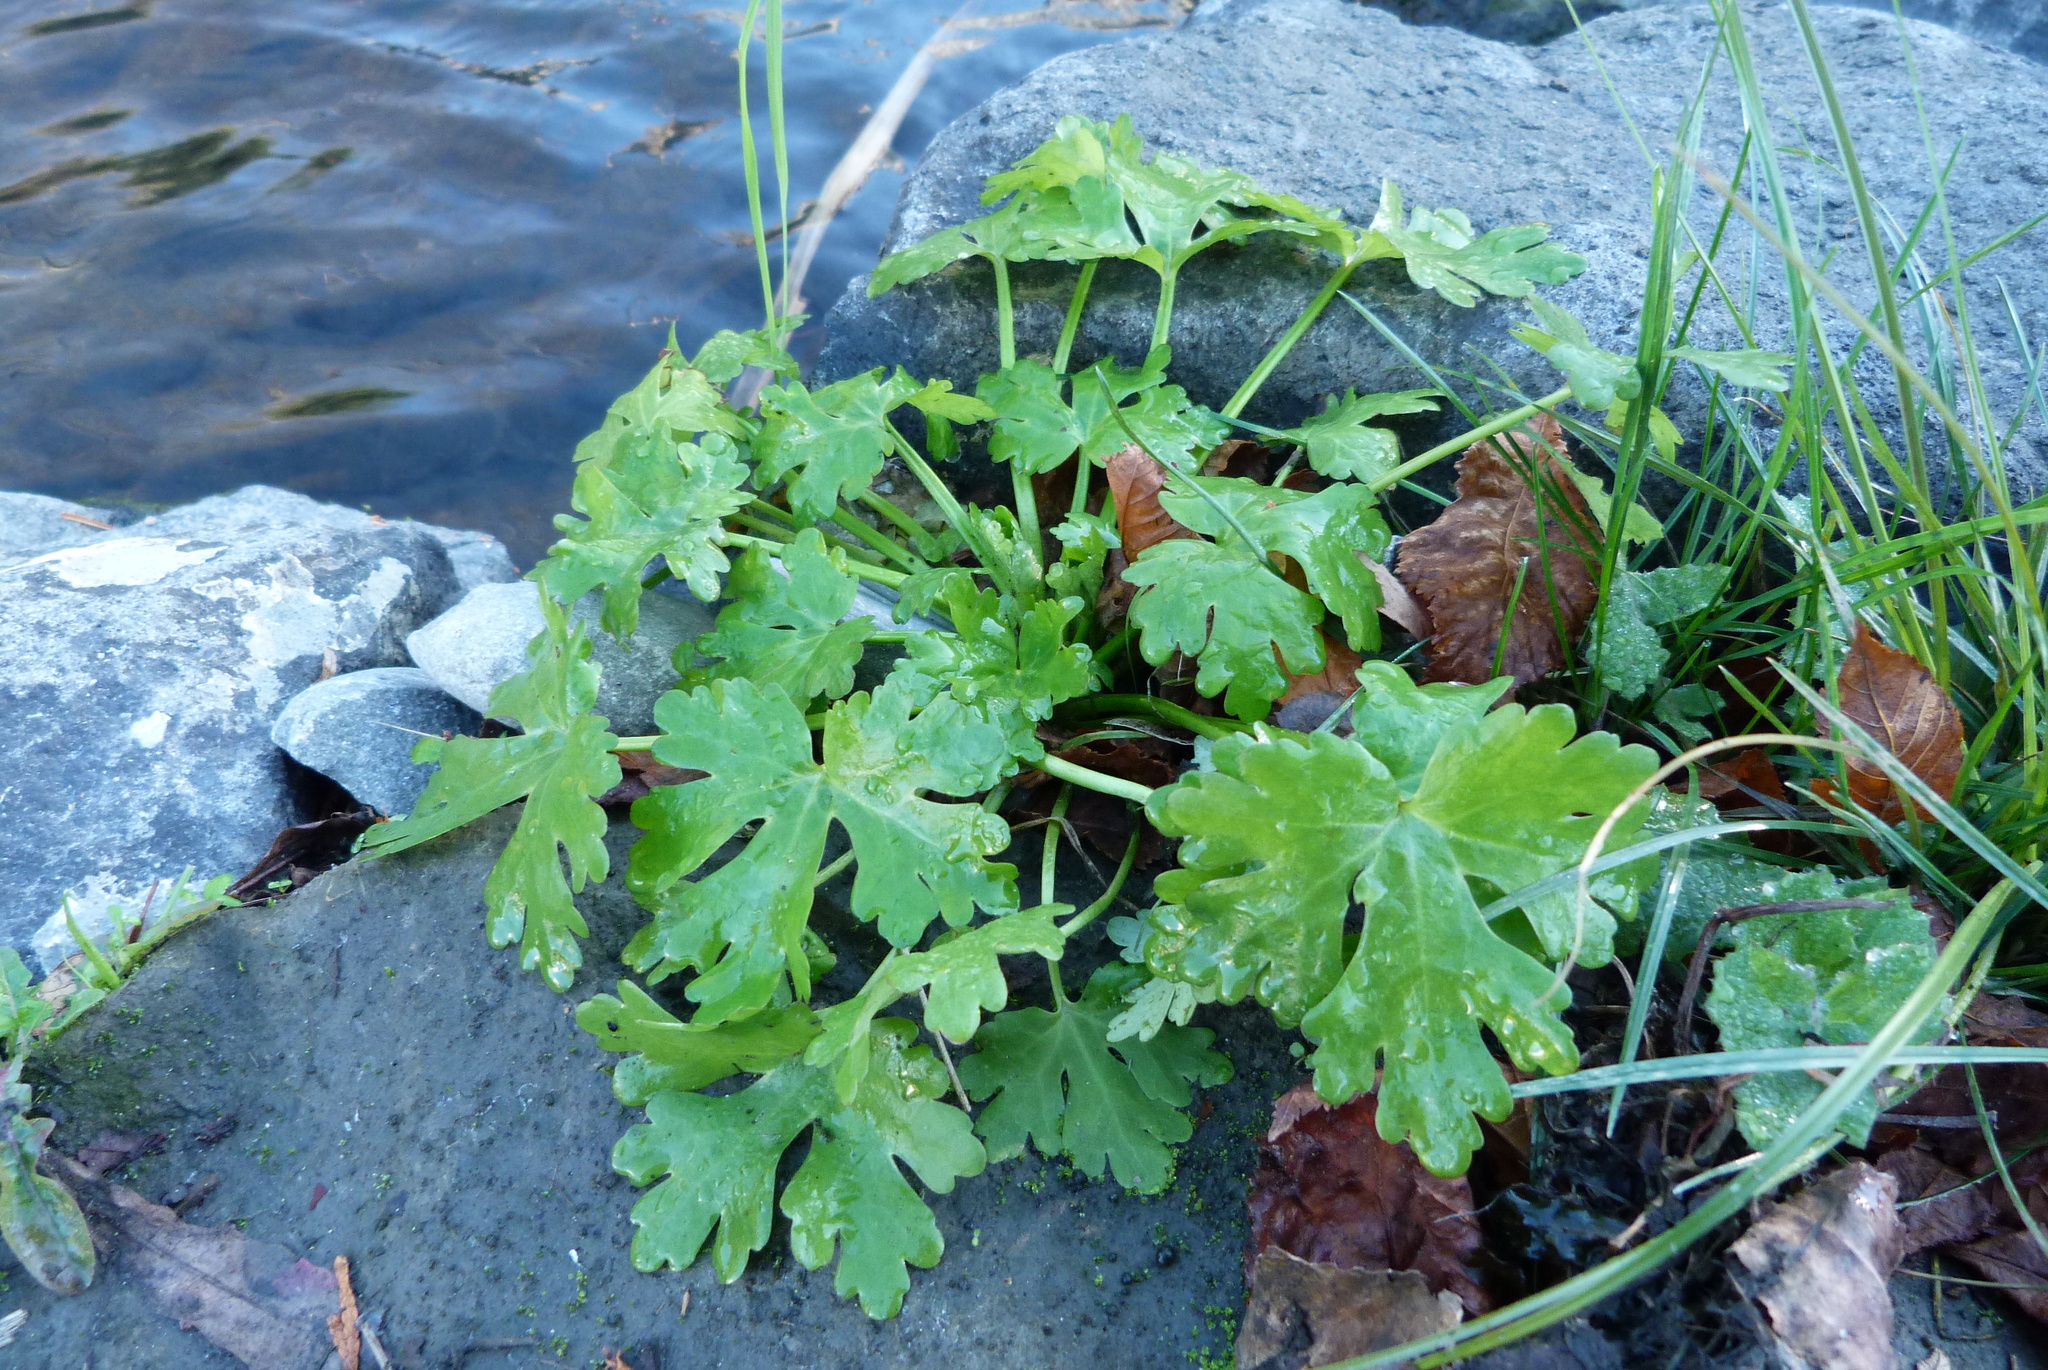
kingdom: Plantae
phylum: Tracheophyta
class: Magnoliopsida
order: Ranunculales
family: Ranunculaceae
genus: Ranunculus
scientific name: Ranunculus sceleratus
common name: Celery-leaved buttercup
